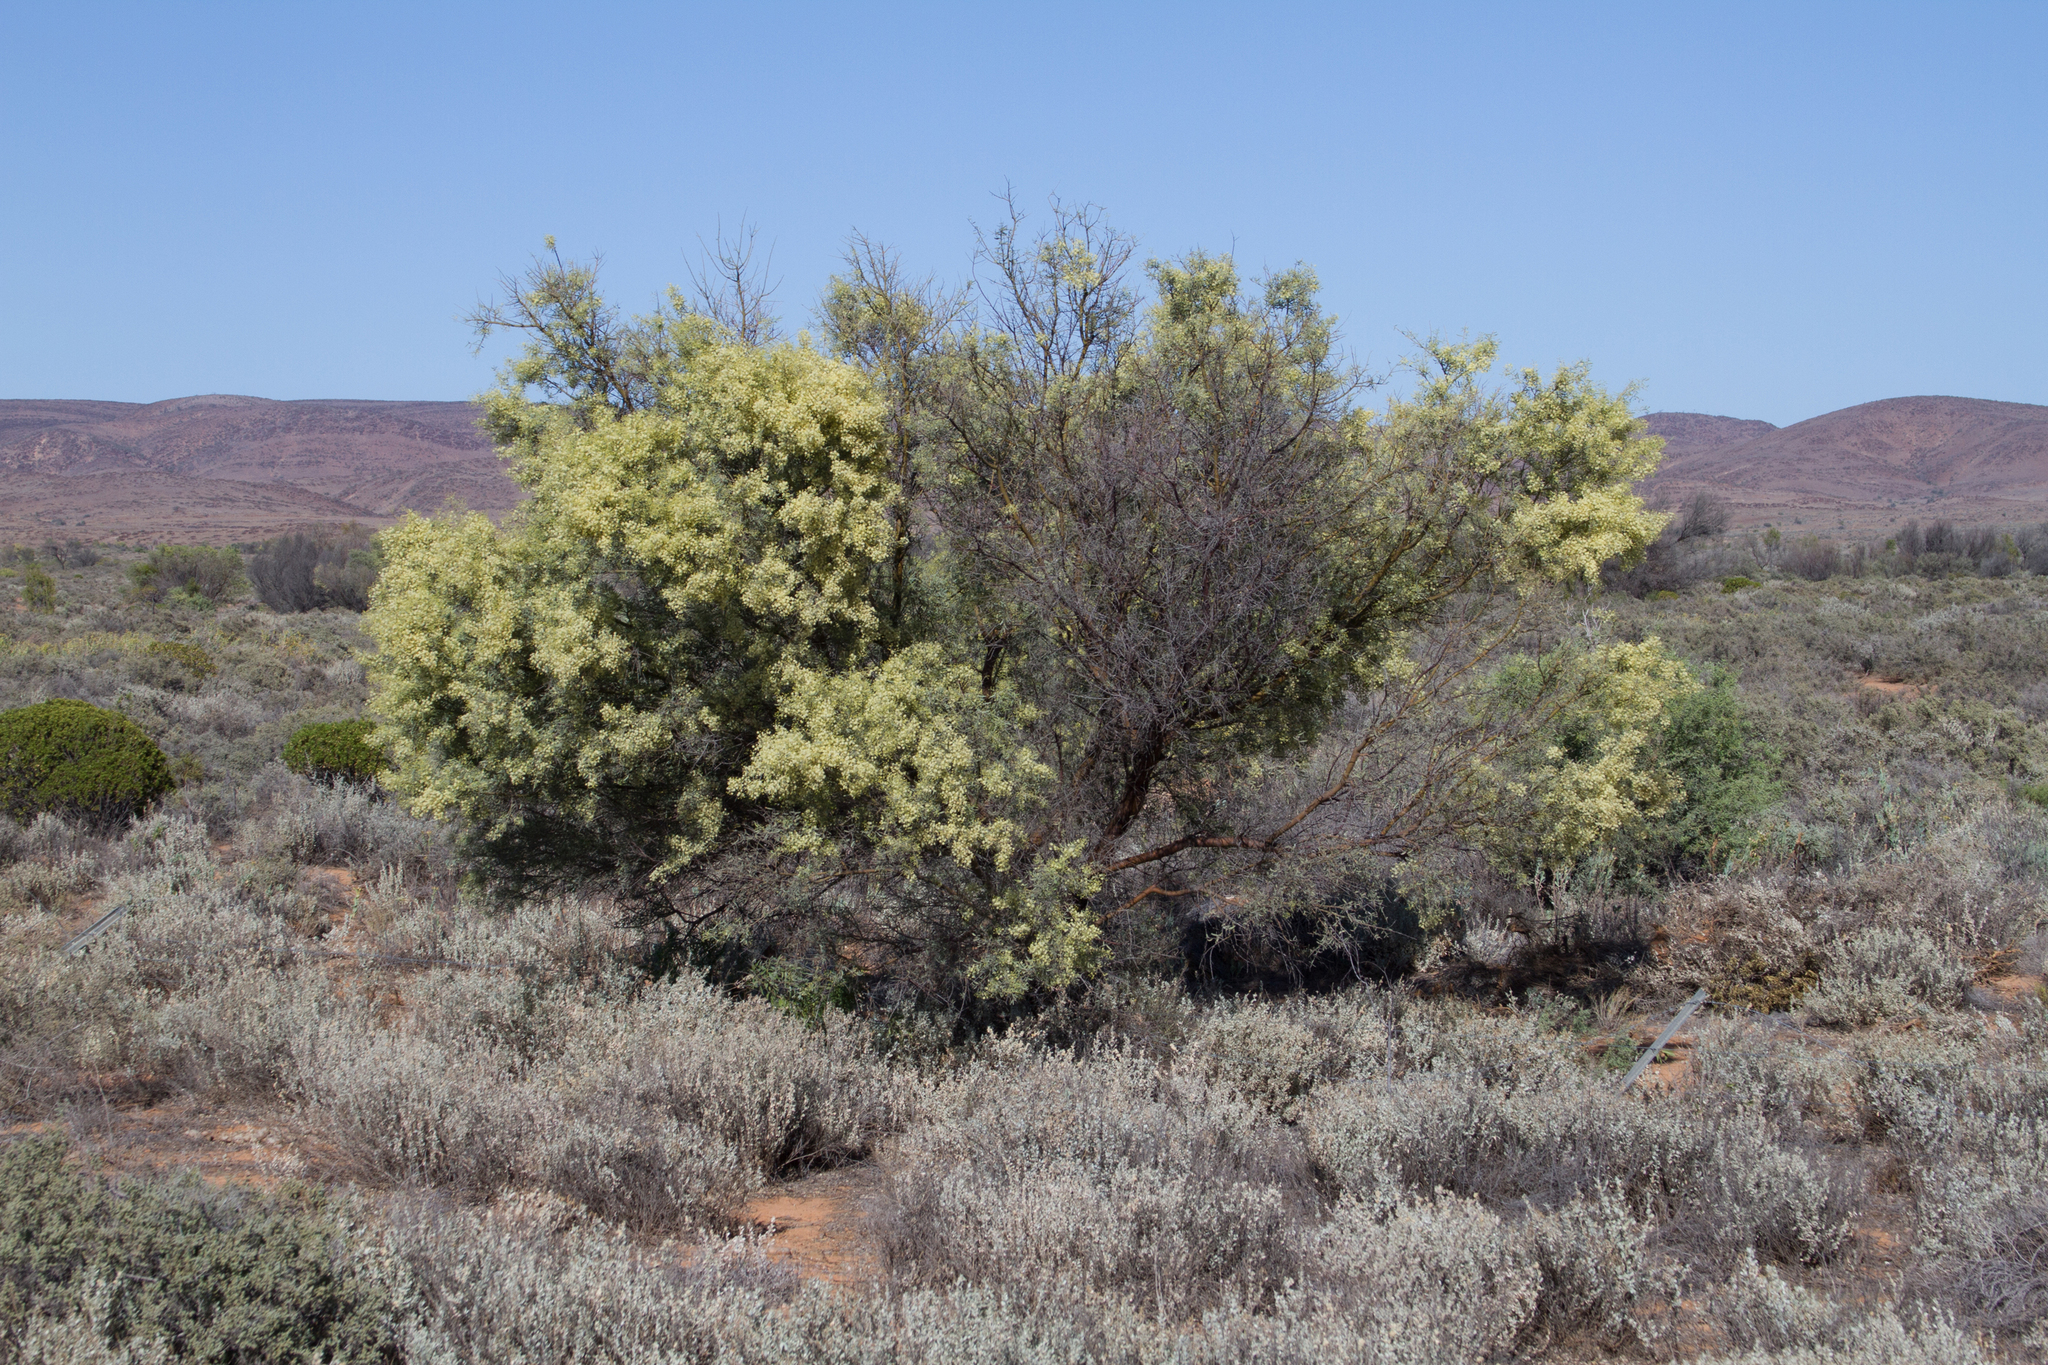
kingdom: Plantae
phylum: Tracheophyta
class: Magnoliopsida
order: Fabales
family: Fabaceae
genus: Acacia
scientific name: Acacia victoriae
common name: Bramble wattle
